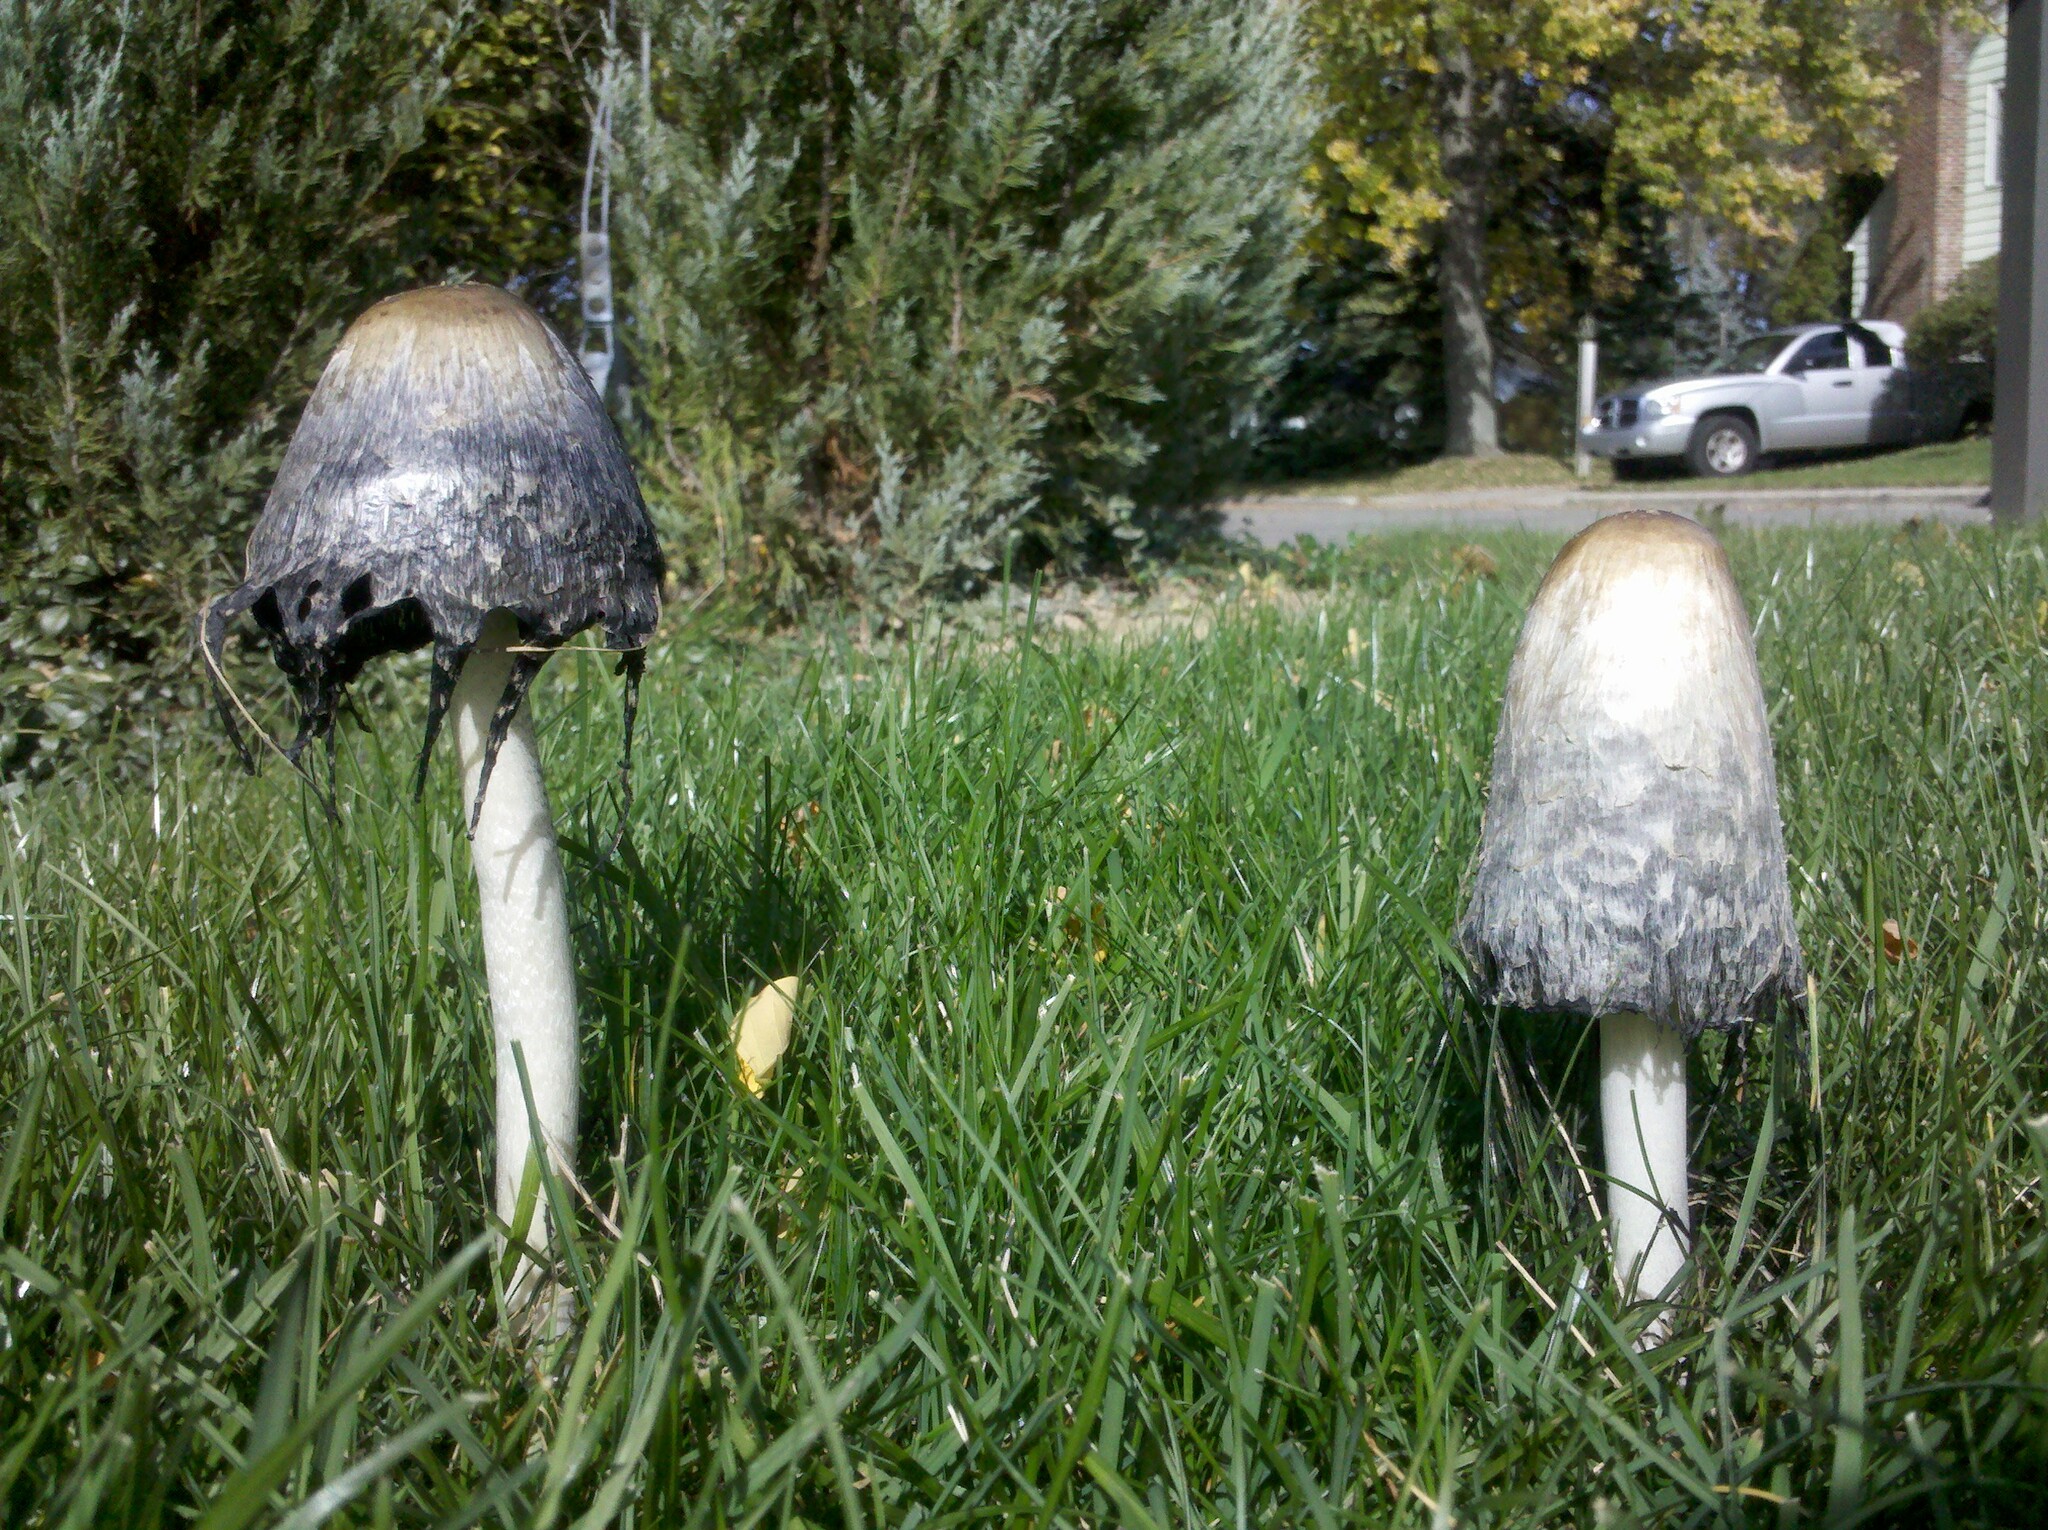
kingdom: Fungi
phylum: Basidiomycota
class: Agaricomycetes
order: Agaricales
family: Agaricaceae
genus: Coprinus
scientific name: Coprinus comatus
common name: Lawyer's wig
